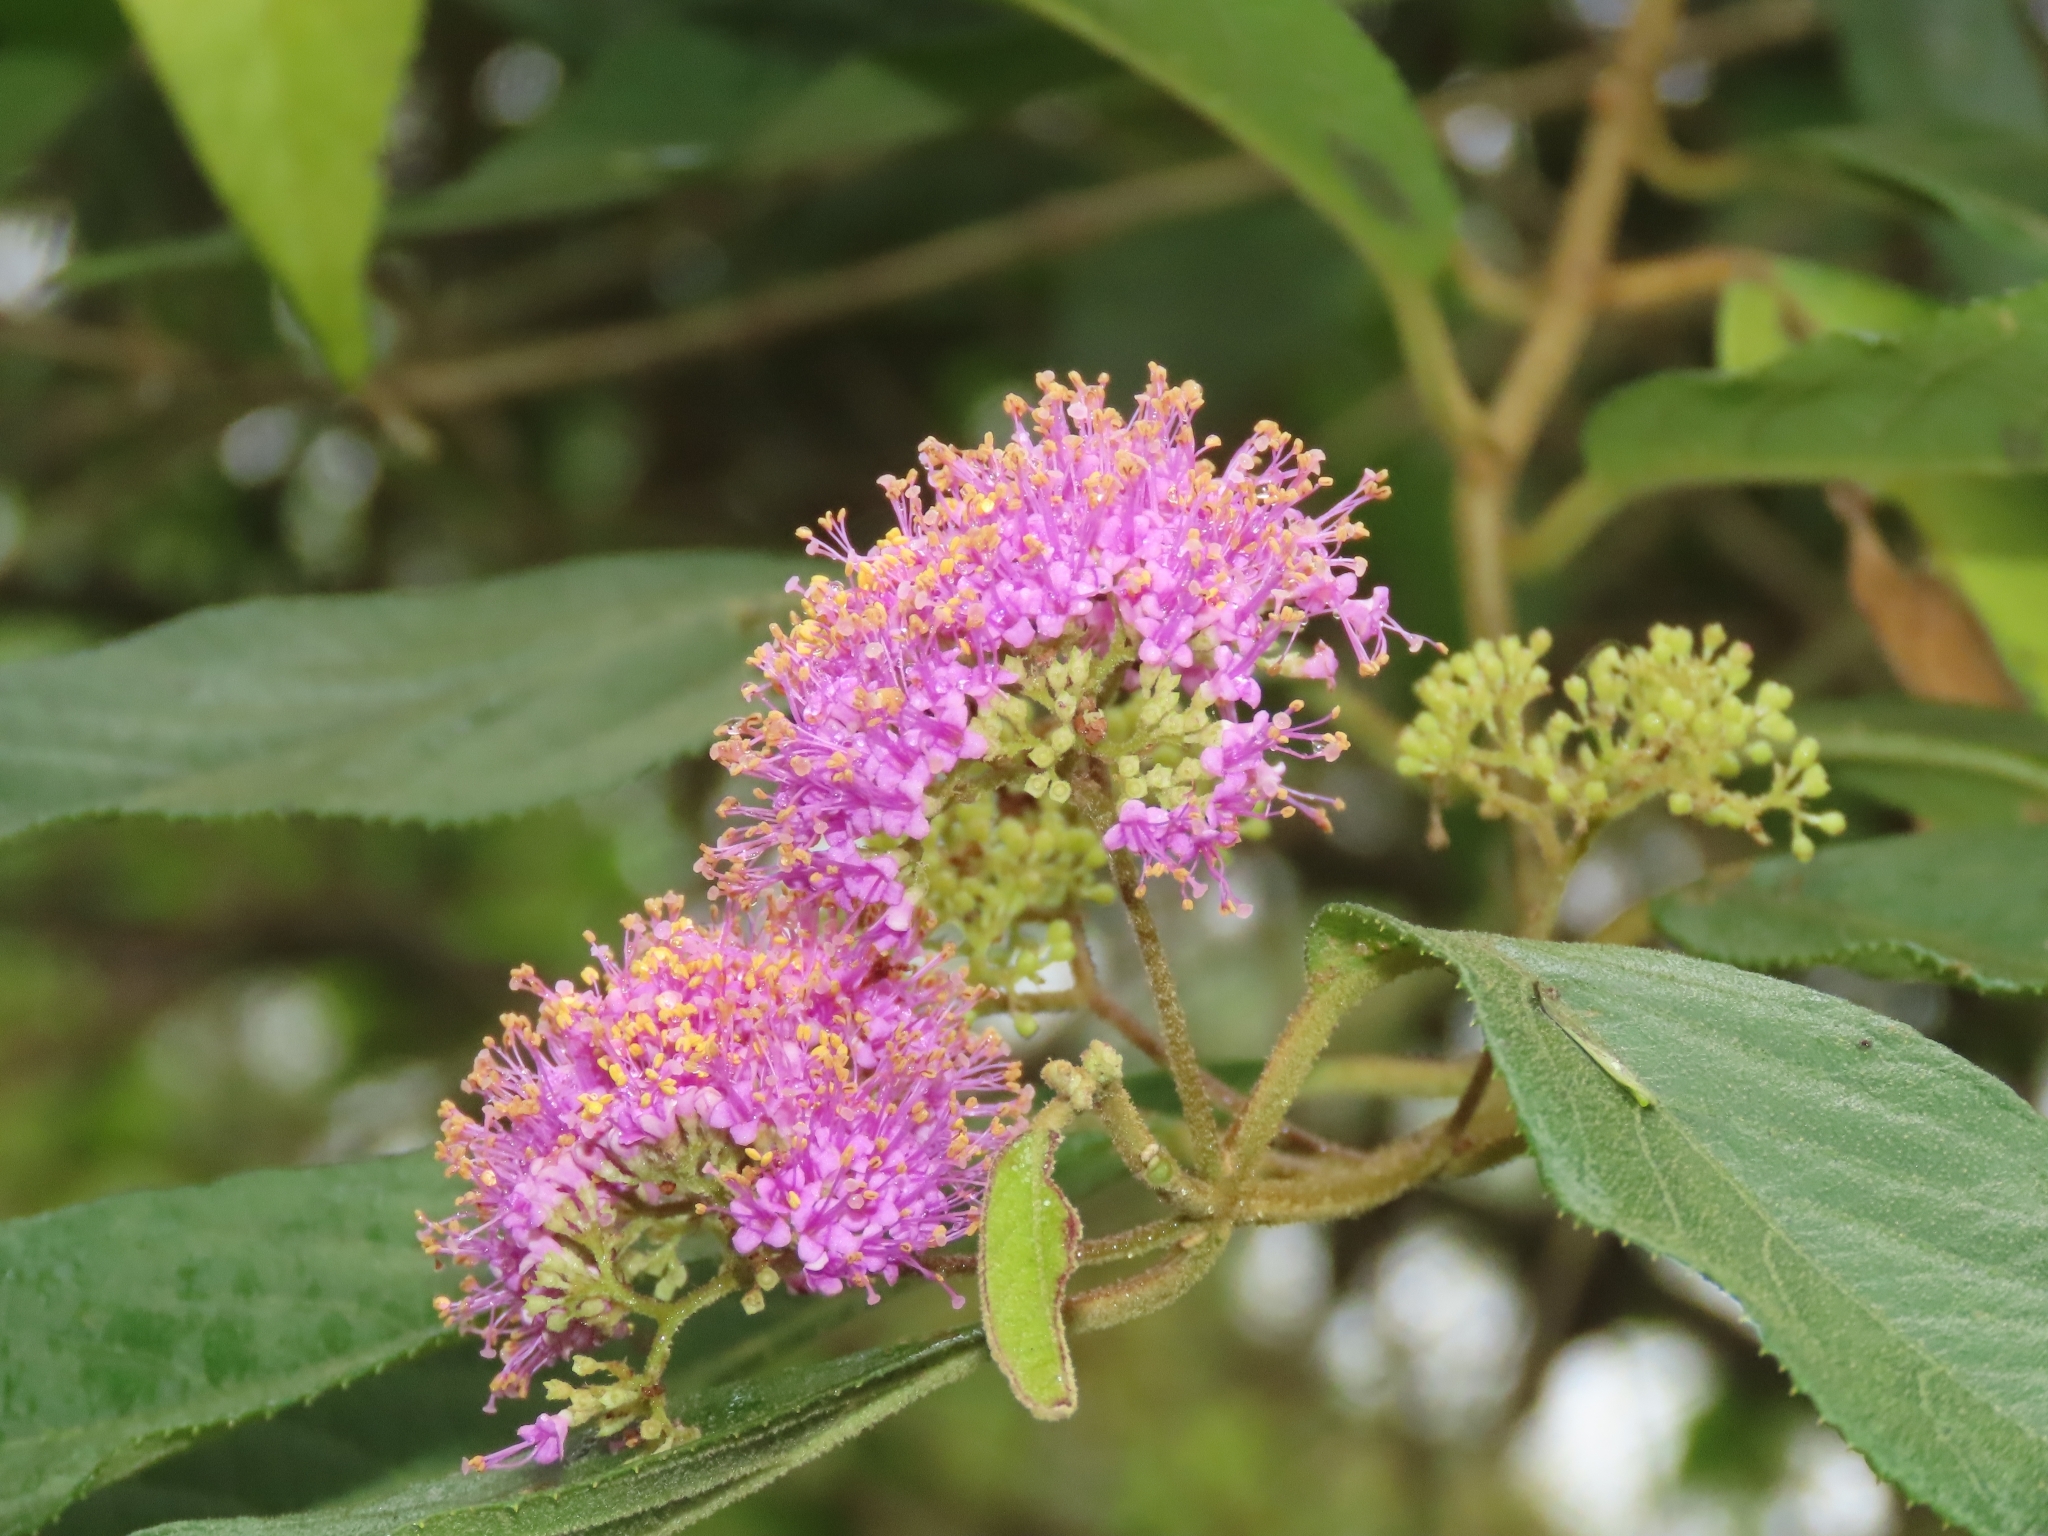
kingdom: Plantae
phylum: Tracheophyta
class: Magnoliopsida
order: Lamiales
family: Lamiaceae
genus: Callicarpa
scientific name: Callicarpa pedunculata
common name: Velvetleaf
